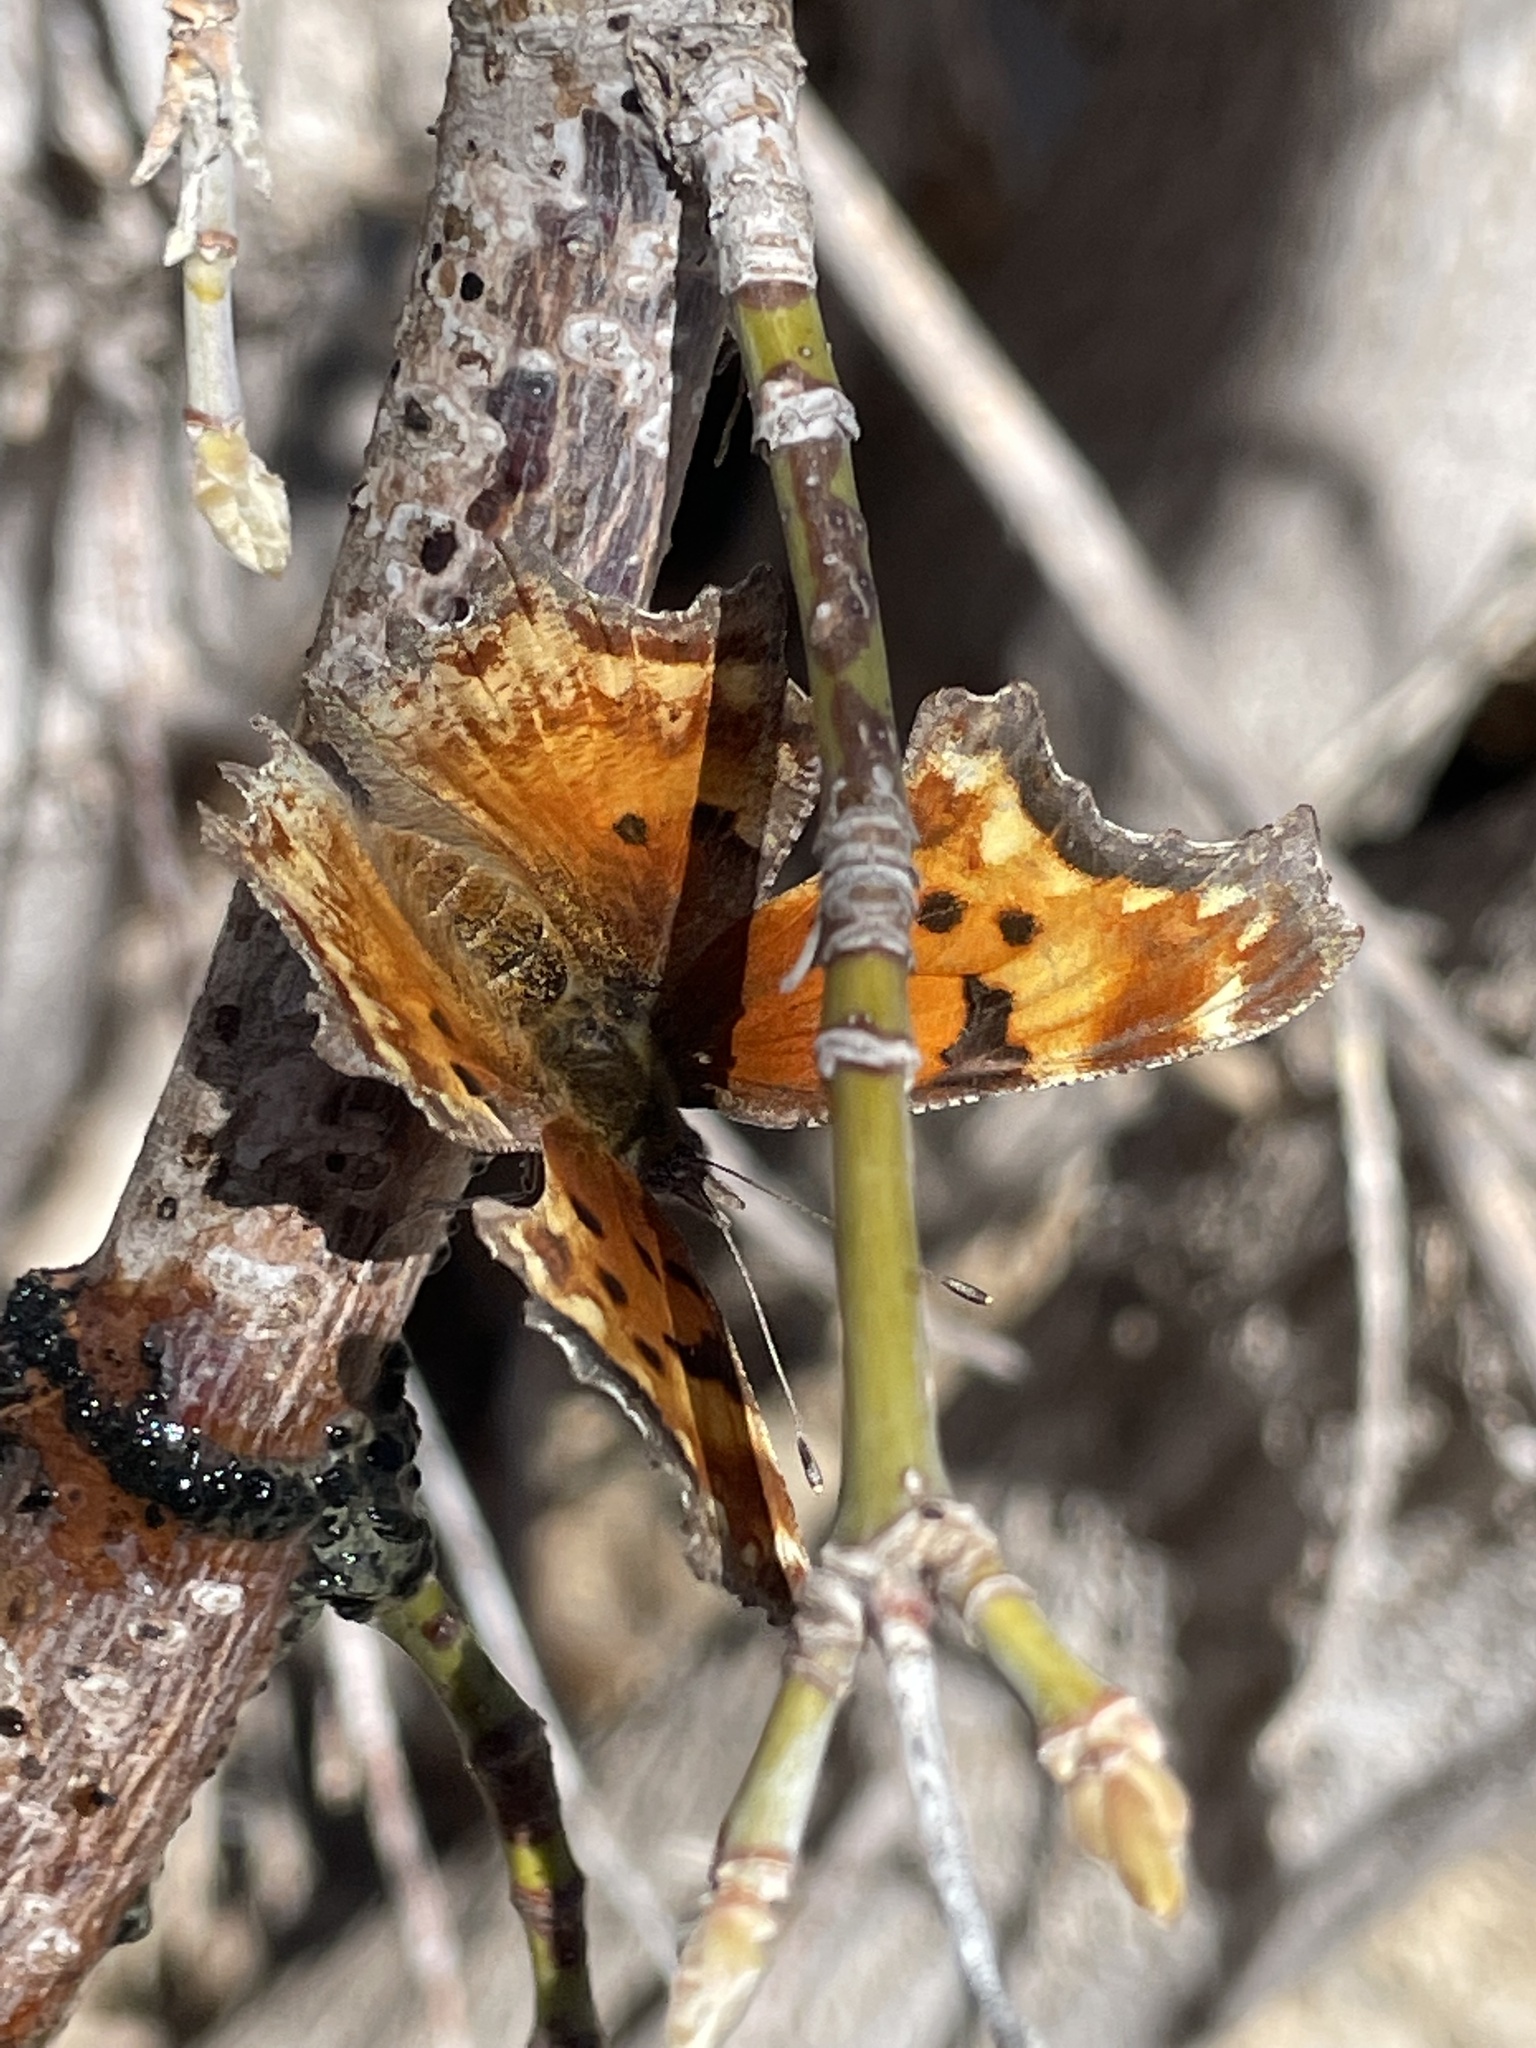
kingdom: Animalia
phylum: Arthropoda
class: Insecta
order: Lepidoptera
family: Nymphalidae
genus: Polygonia
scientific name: Polygonia gracilis
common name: Hoary comma
